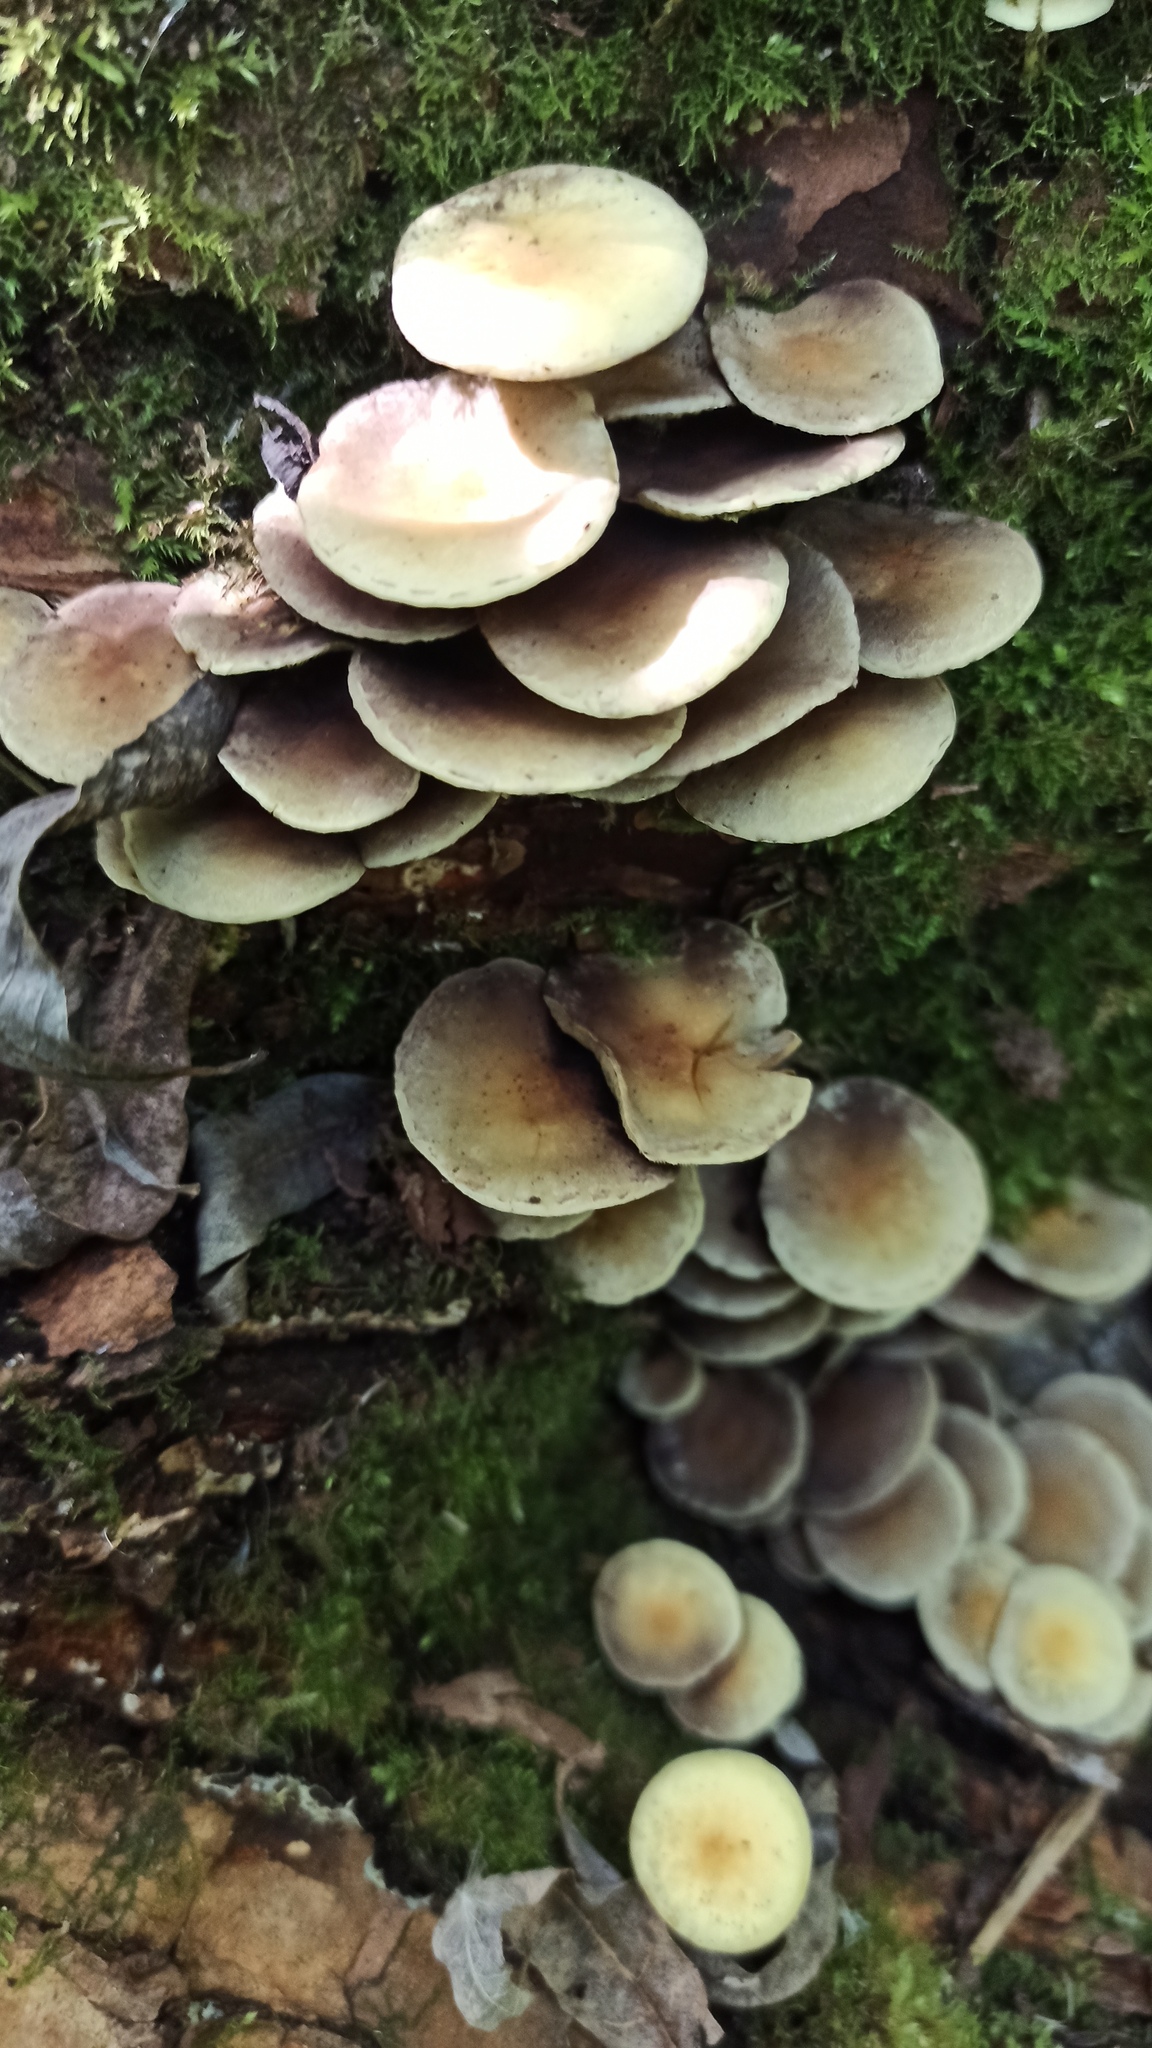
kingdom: Fungi
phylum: Basidiomycota
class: Agaricomycetes
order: Agaricales
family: Strophariaceae
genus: Hypholoma
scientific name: Hypholoma fasciculare
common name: Sulphur tuft
